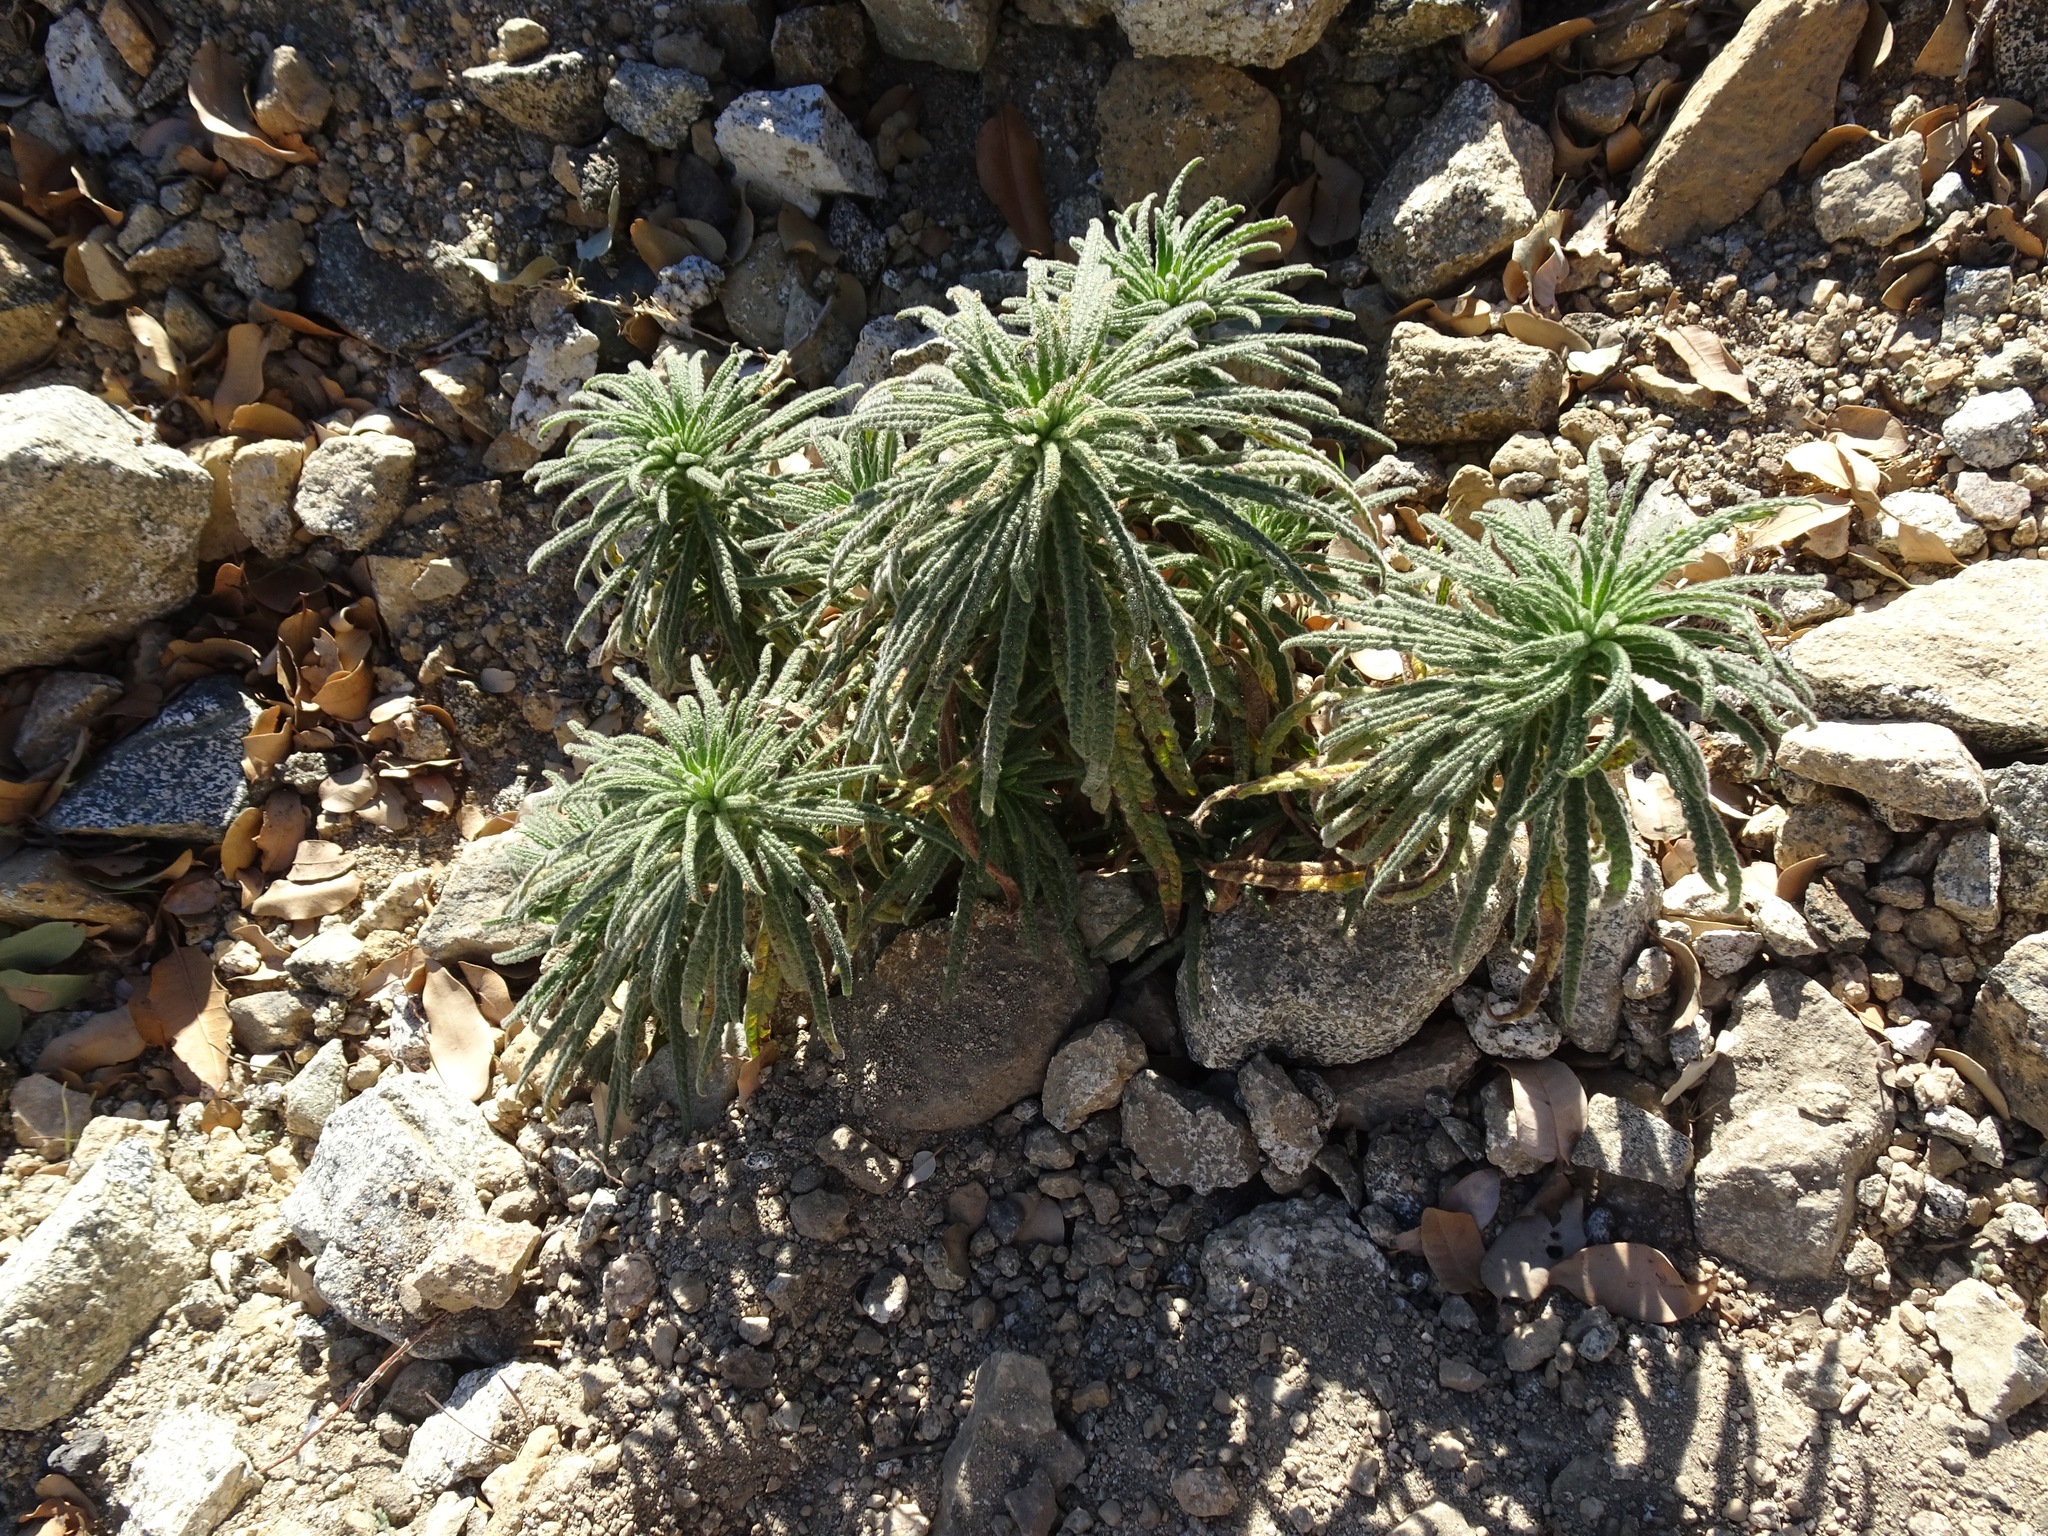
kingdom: Plantae
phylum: Tracheophyta
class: Magnoliopsida
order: Boraginales
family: Namaceae
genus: Turricula
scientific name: Turricula parryi
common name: Poodle-dog-bush
